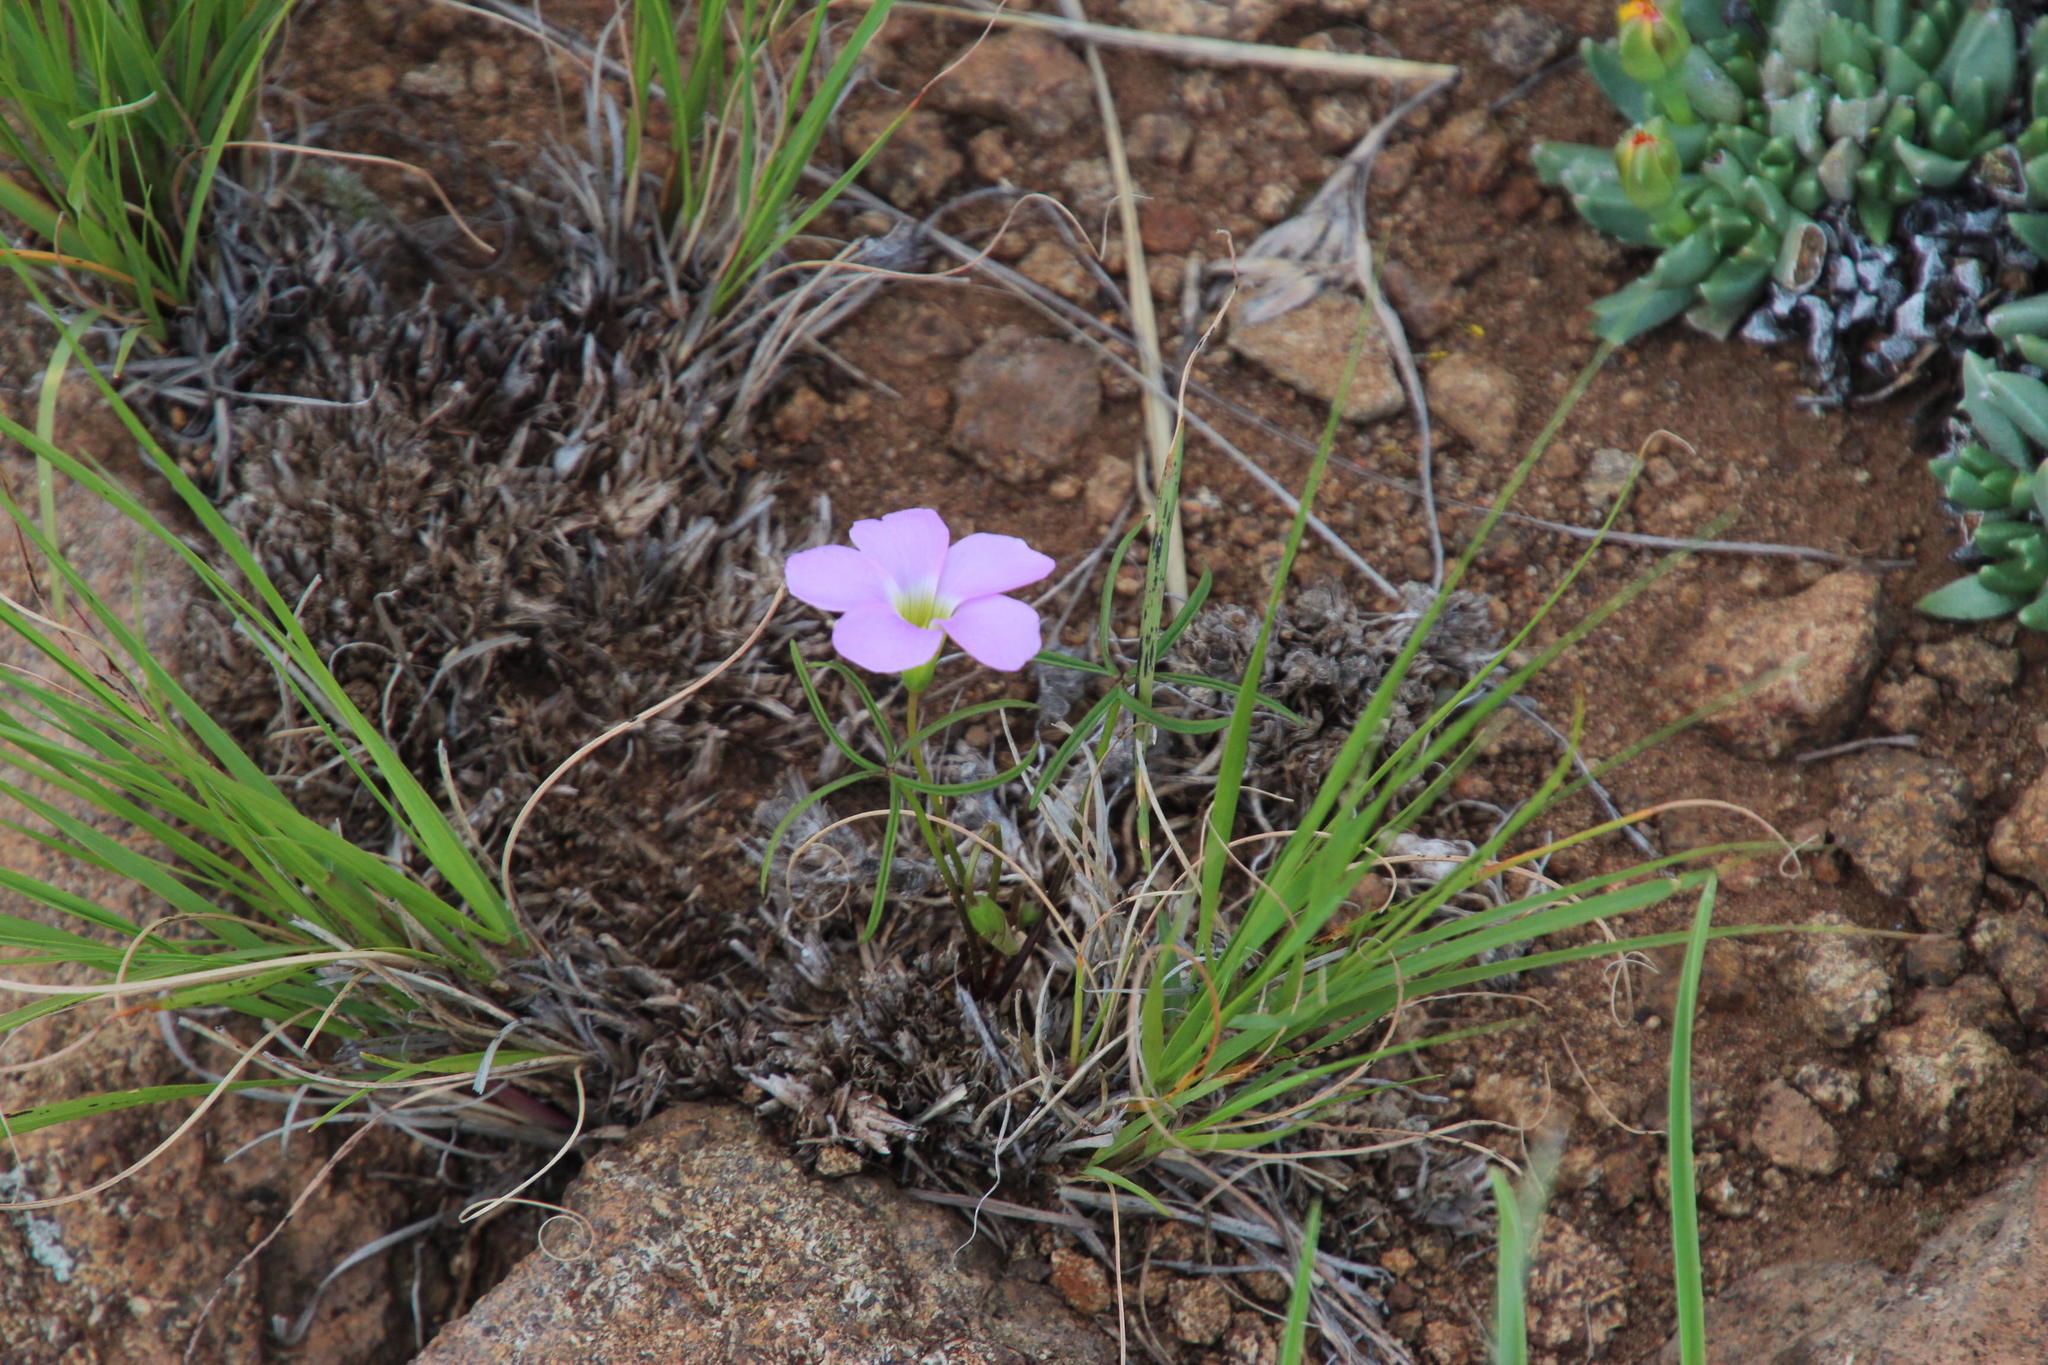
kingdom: Plantae
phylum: Tracheophyta
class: Magnoliopsida
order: Oxalidales
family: Oxalidaceae
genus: Oxalis
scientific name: Oxalis smithiana
